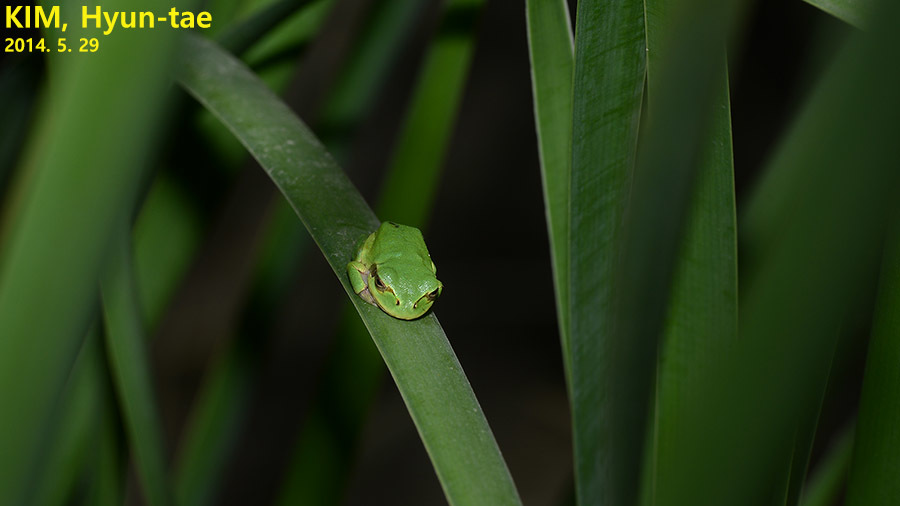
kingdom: Animalia
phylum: Chordata
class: Amphibia
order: Anura
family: Hylidae
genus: Dryophytes
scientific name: Dryophytes japonicus
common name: Japanese treefrog
